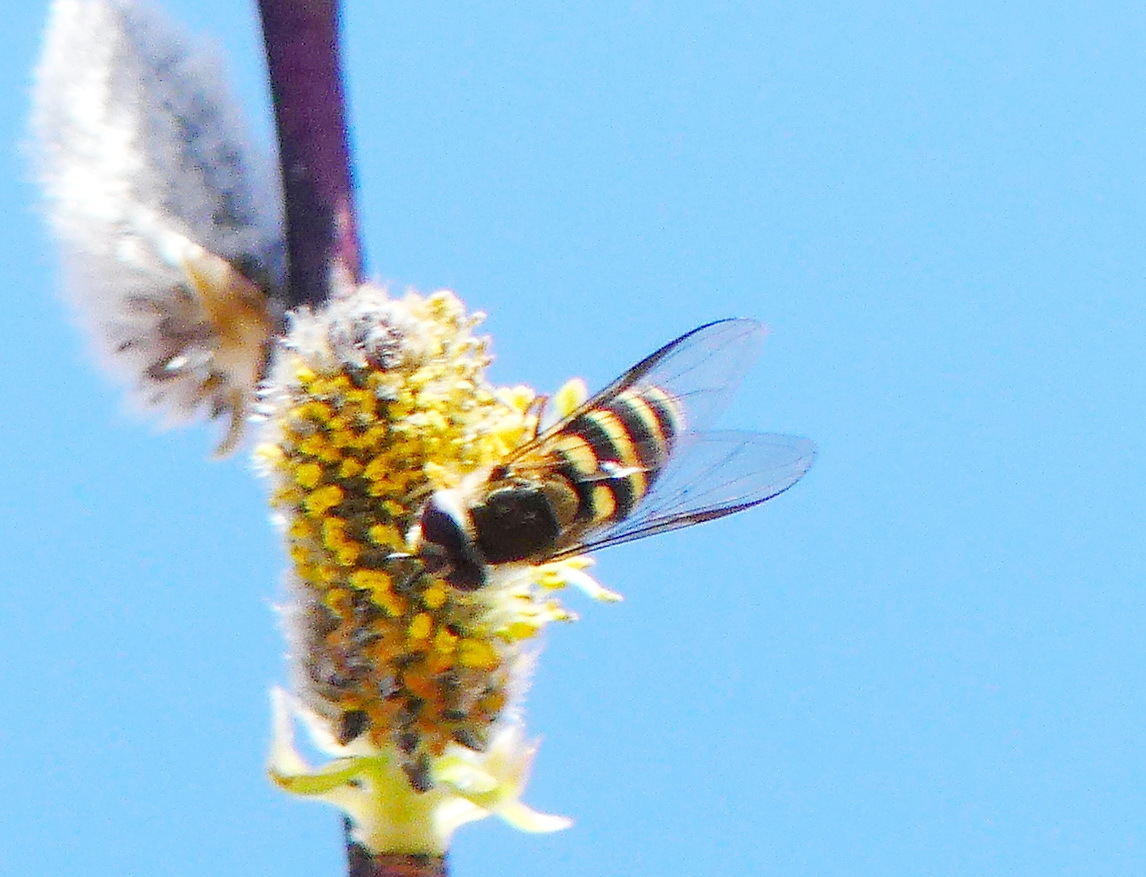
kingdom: Animalia
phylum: Arthropoda
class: Insecta
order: Diptera
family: Syrphidae
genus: Syrphus
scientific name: Syrphus
